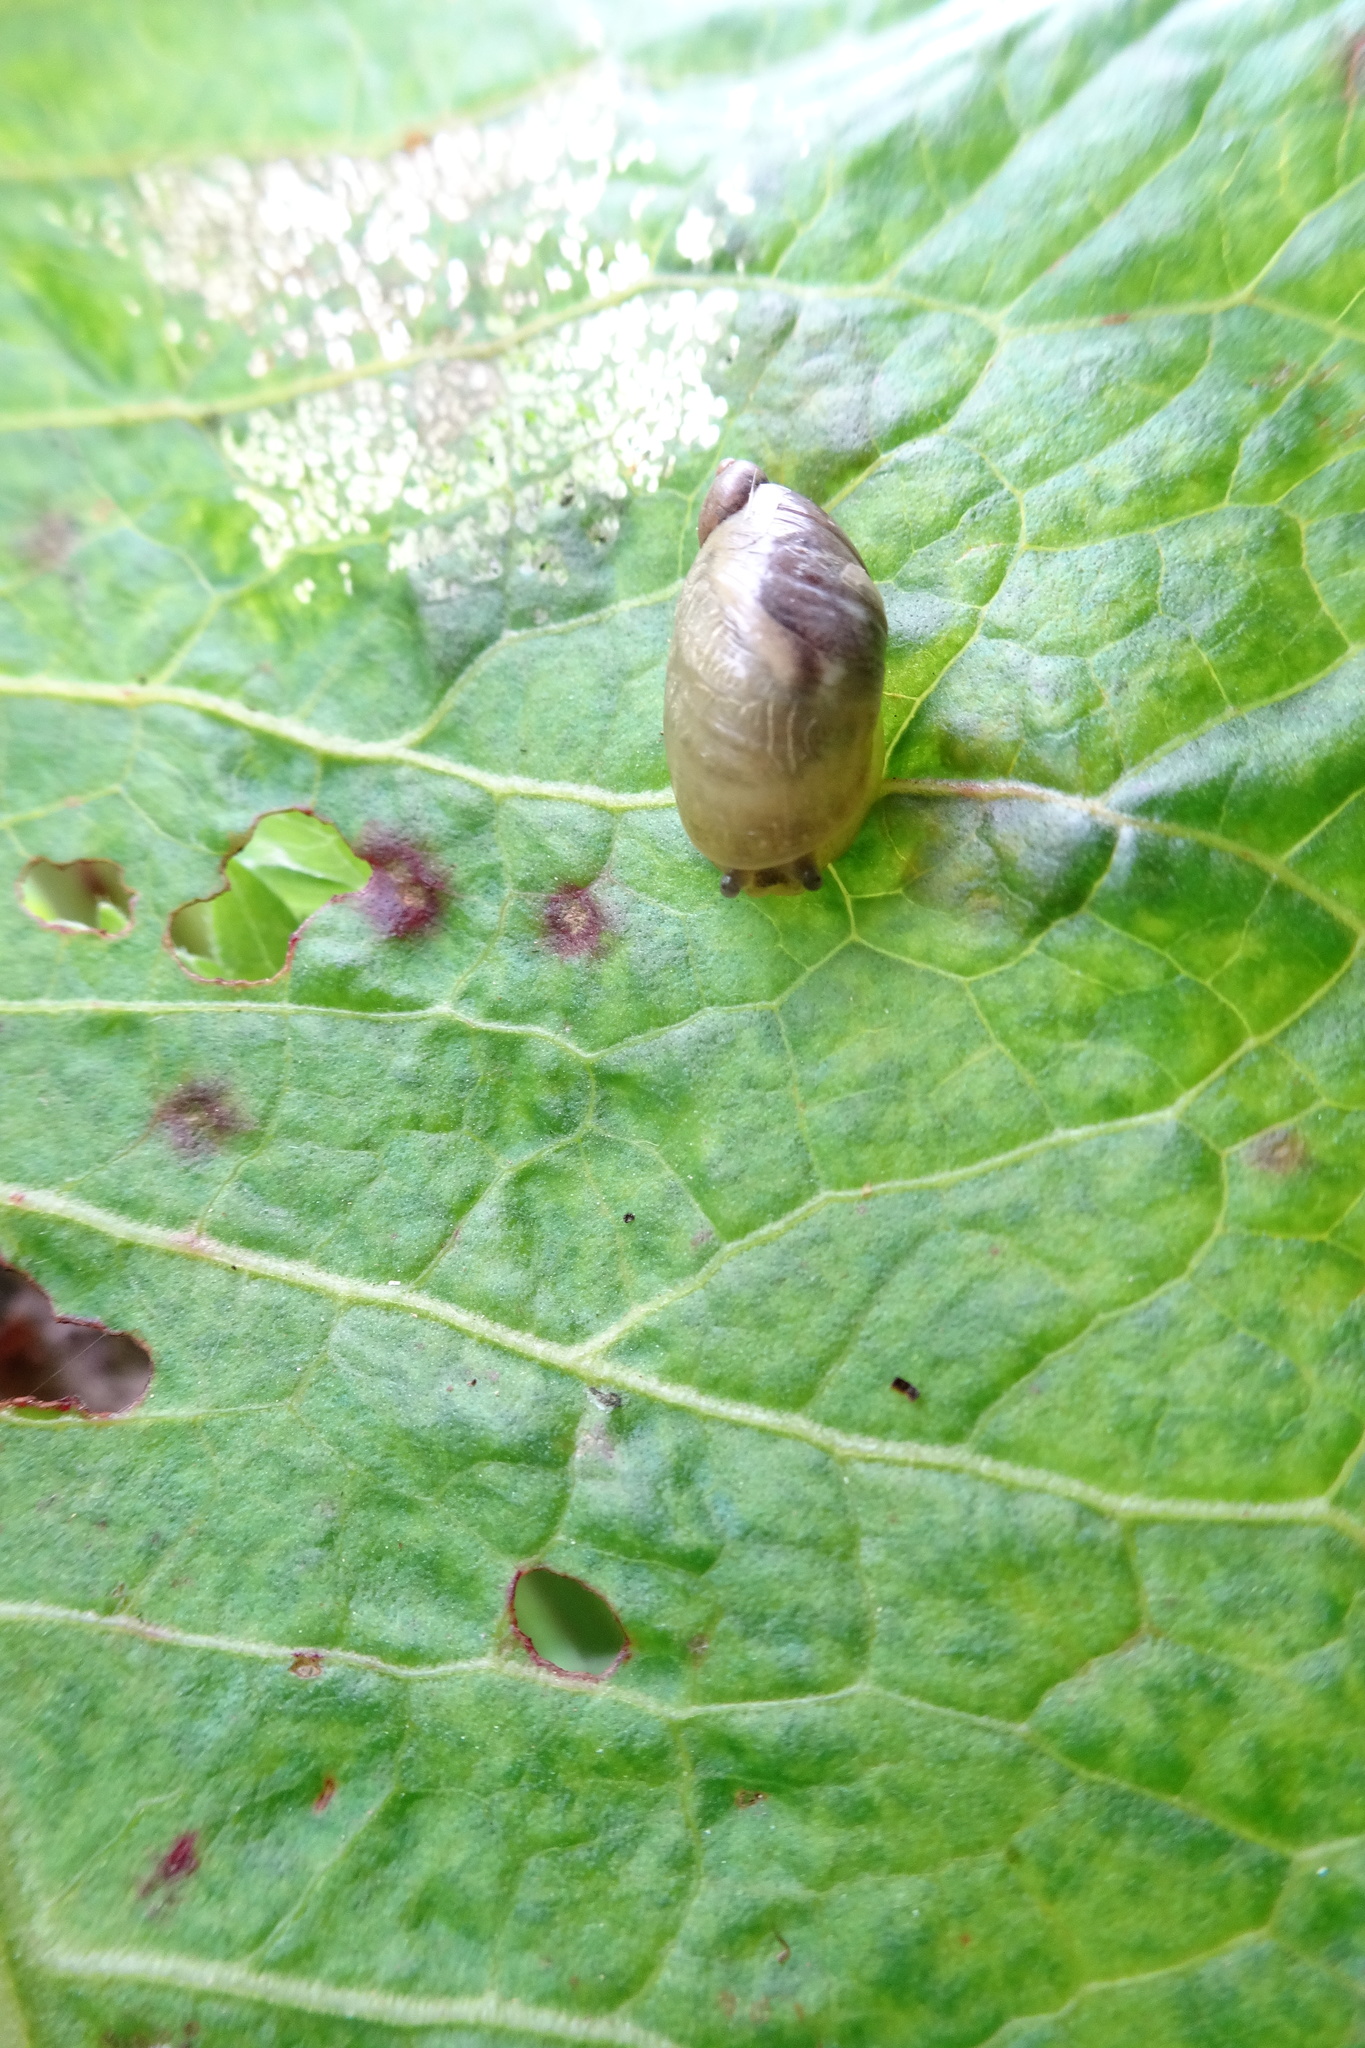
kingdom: Animalia
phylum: Mollusca
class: Gastropoda
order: Stylommatophora
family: Succineidae
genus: Succinea
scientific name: Succinea putris
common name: European ambersnail
